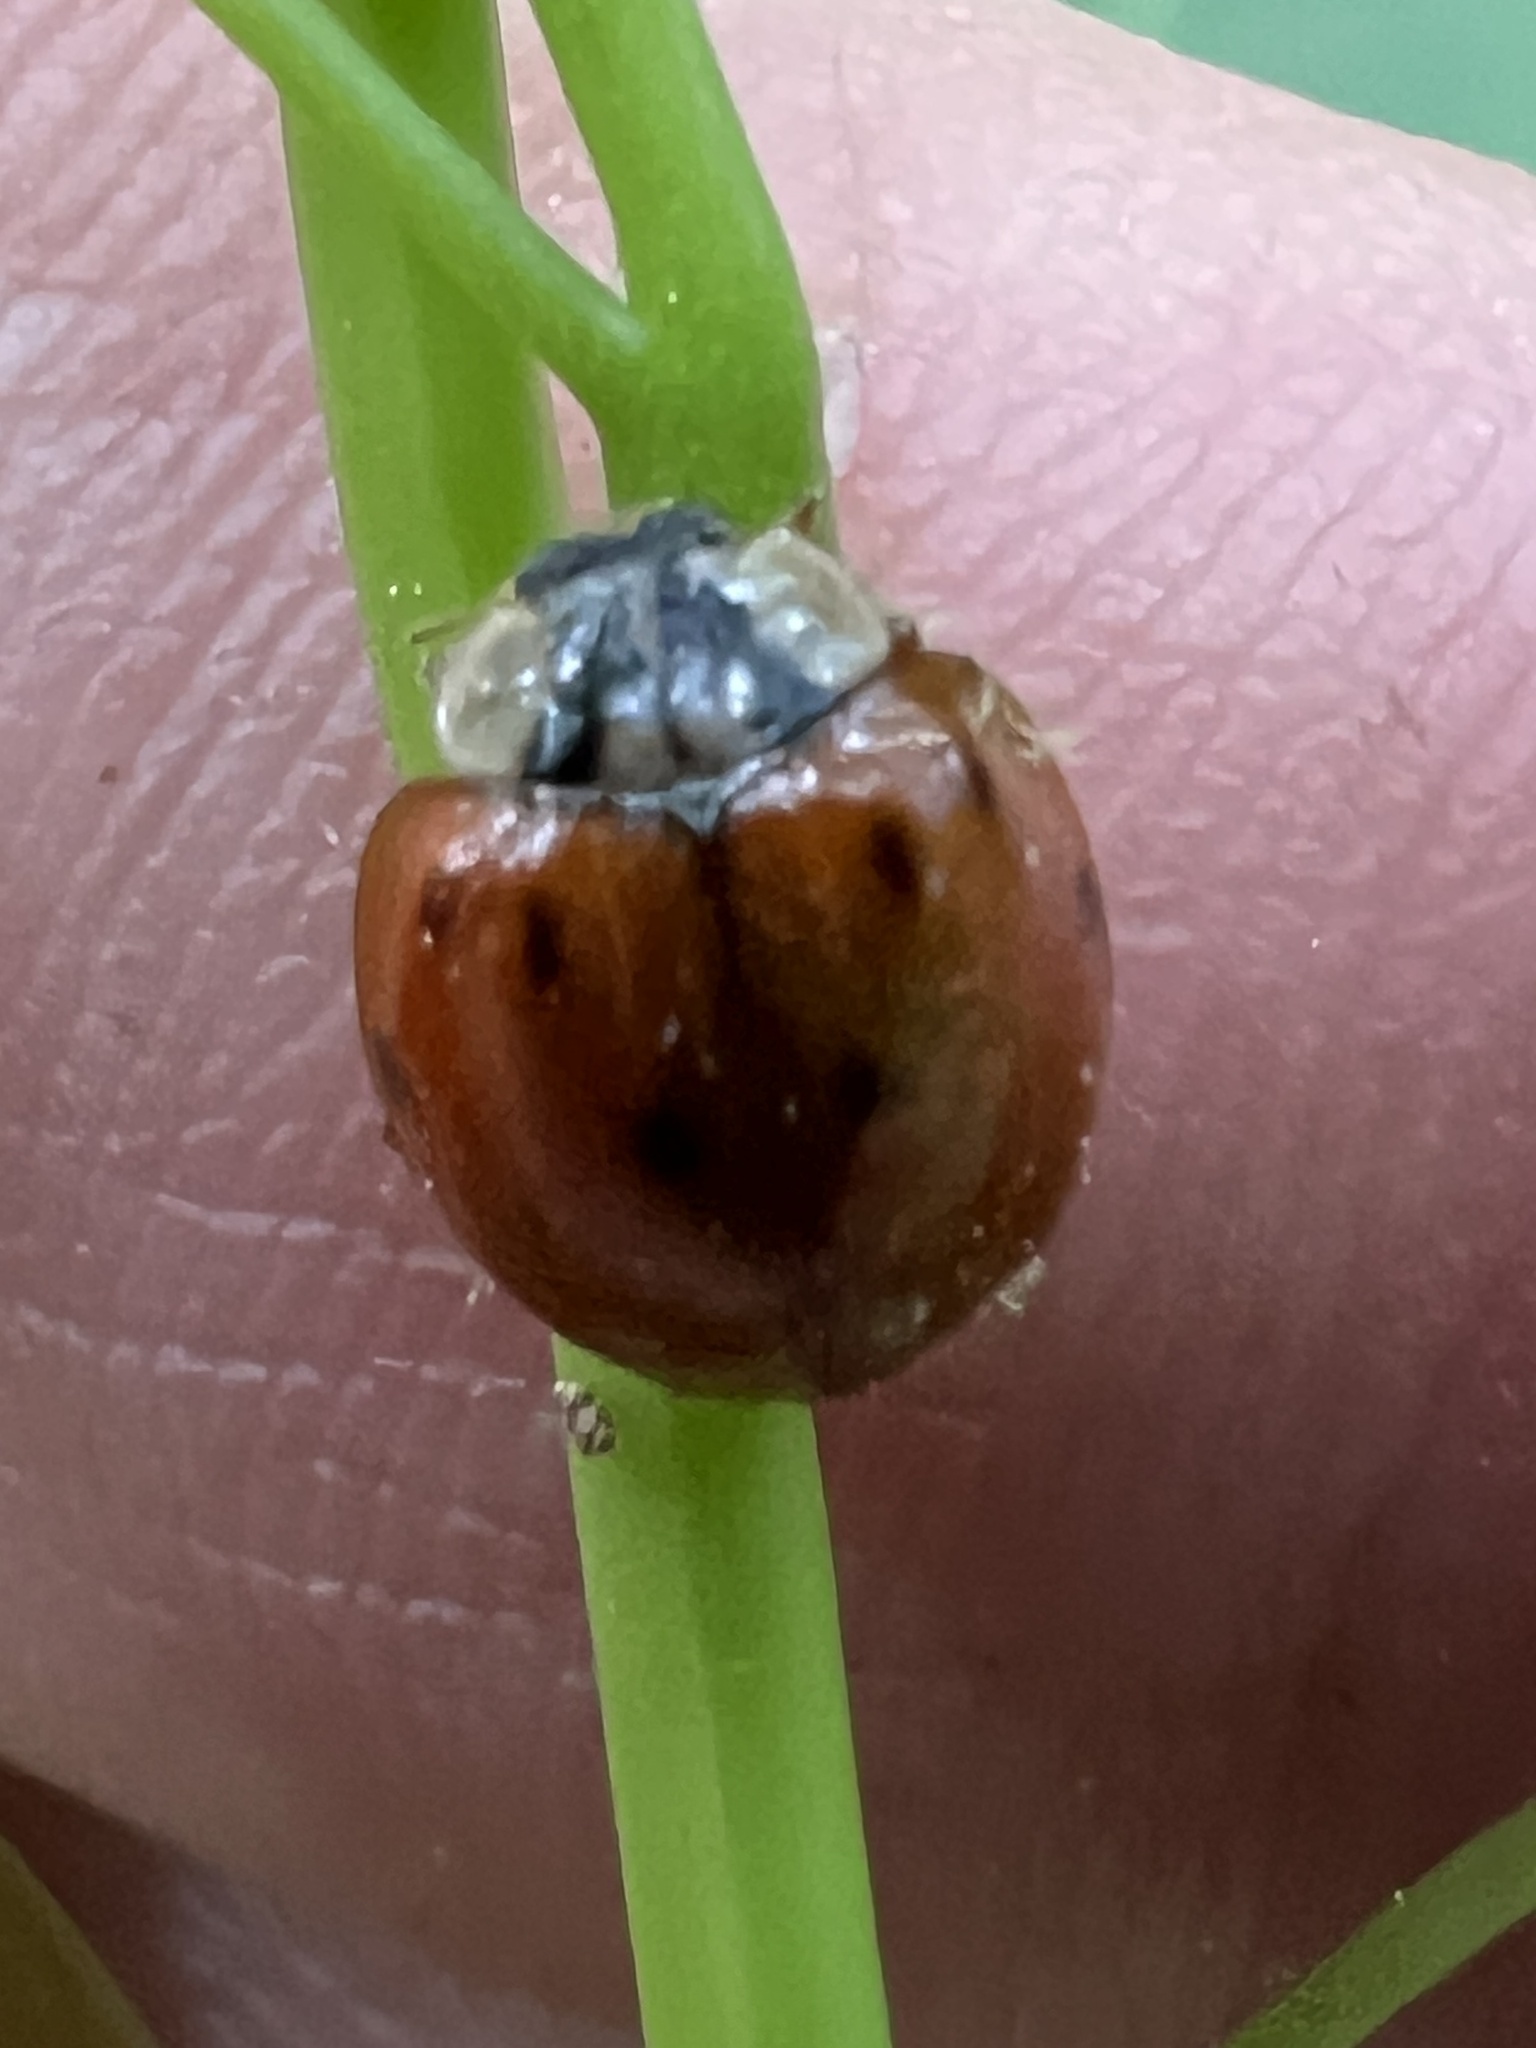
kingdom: Fungi
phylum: Ascomycota
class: Laboulbeniomycetes
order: Laboulbeniales
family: Laboulbeniaceae
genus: Hesperomyces
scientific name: Hesperomyces harmoniae
